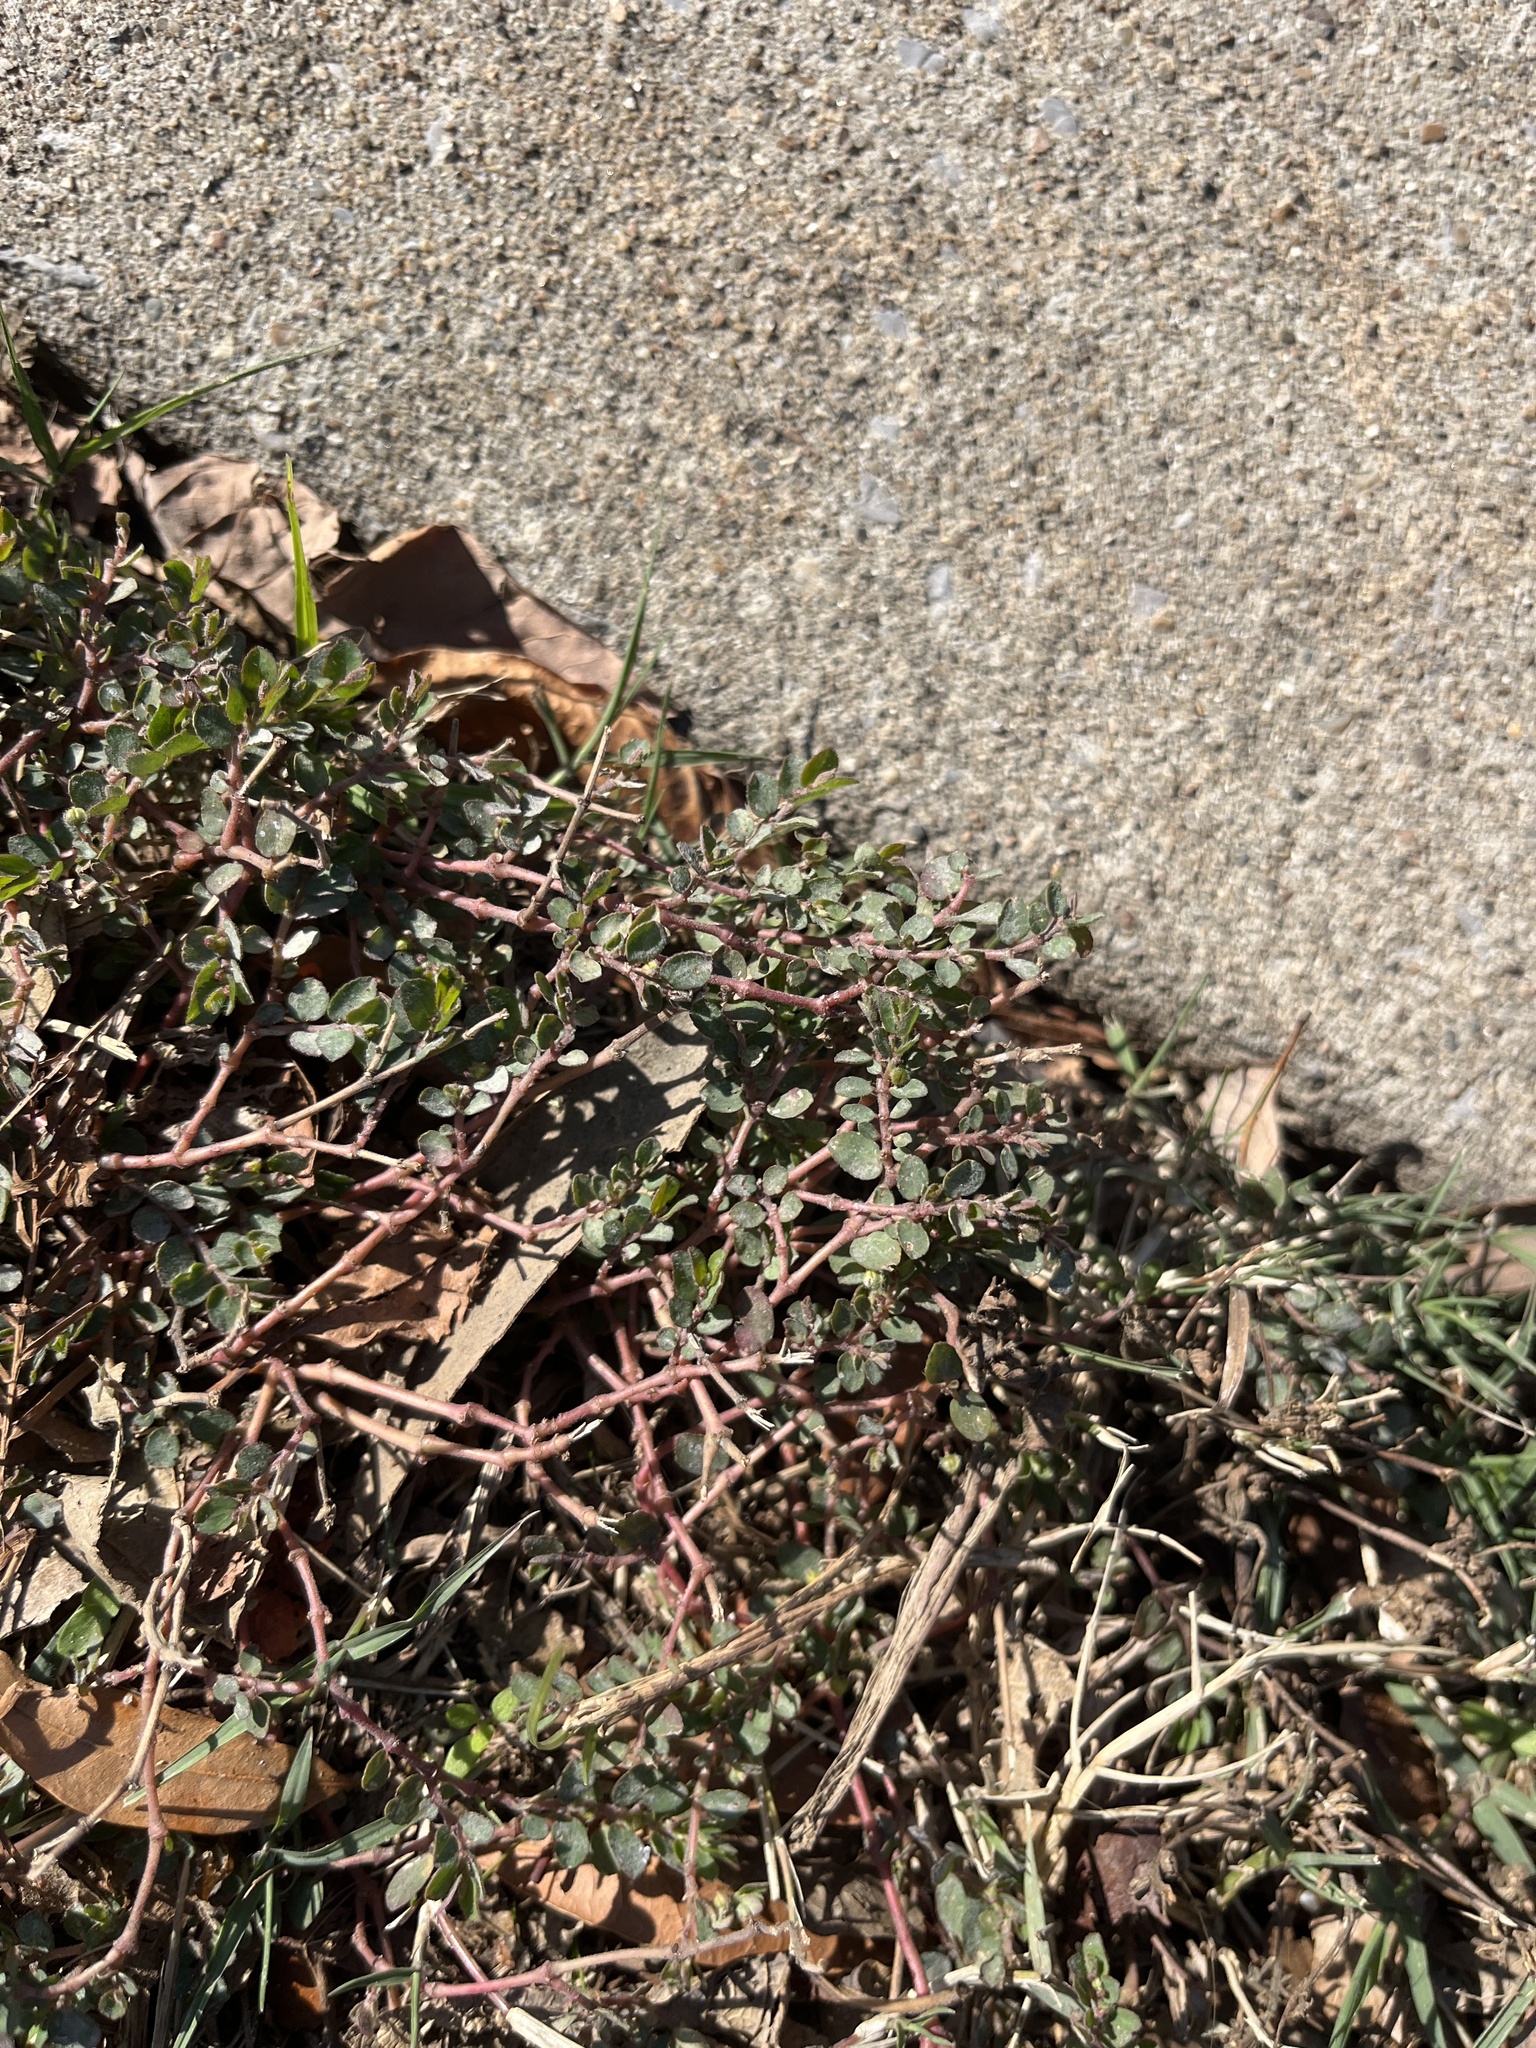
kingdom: Plantae
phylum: Tracheophyta
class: Magnoliopsida
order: Malpighiales
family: Euphorbiaceae
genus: Euphorbia
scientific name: Euphorbia prostrata
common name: Prostrate sandmat
